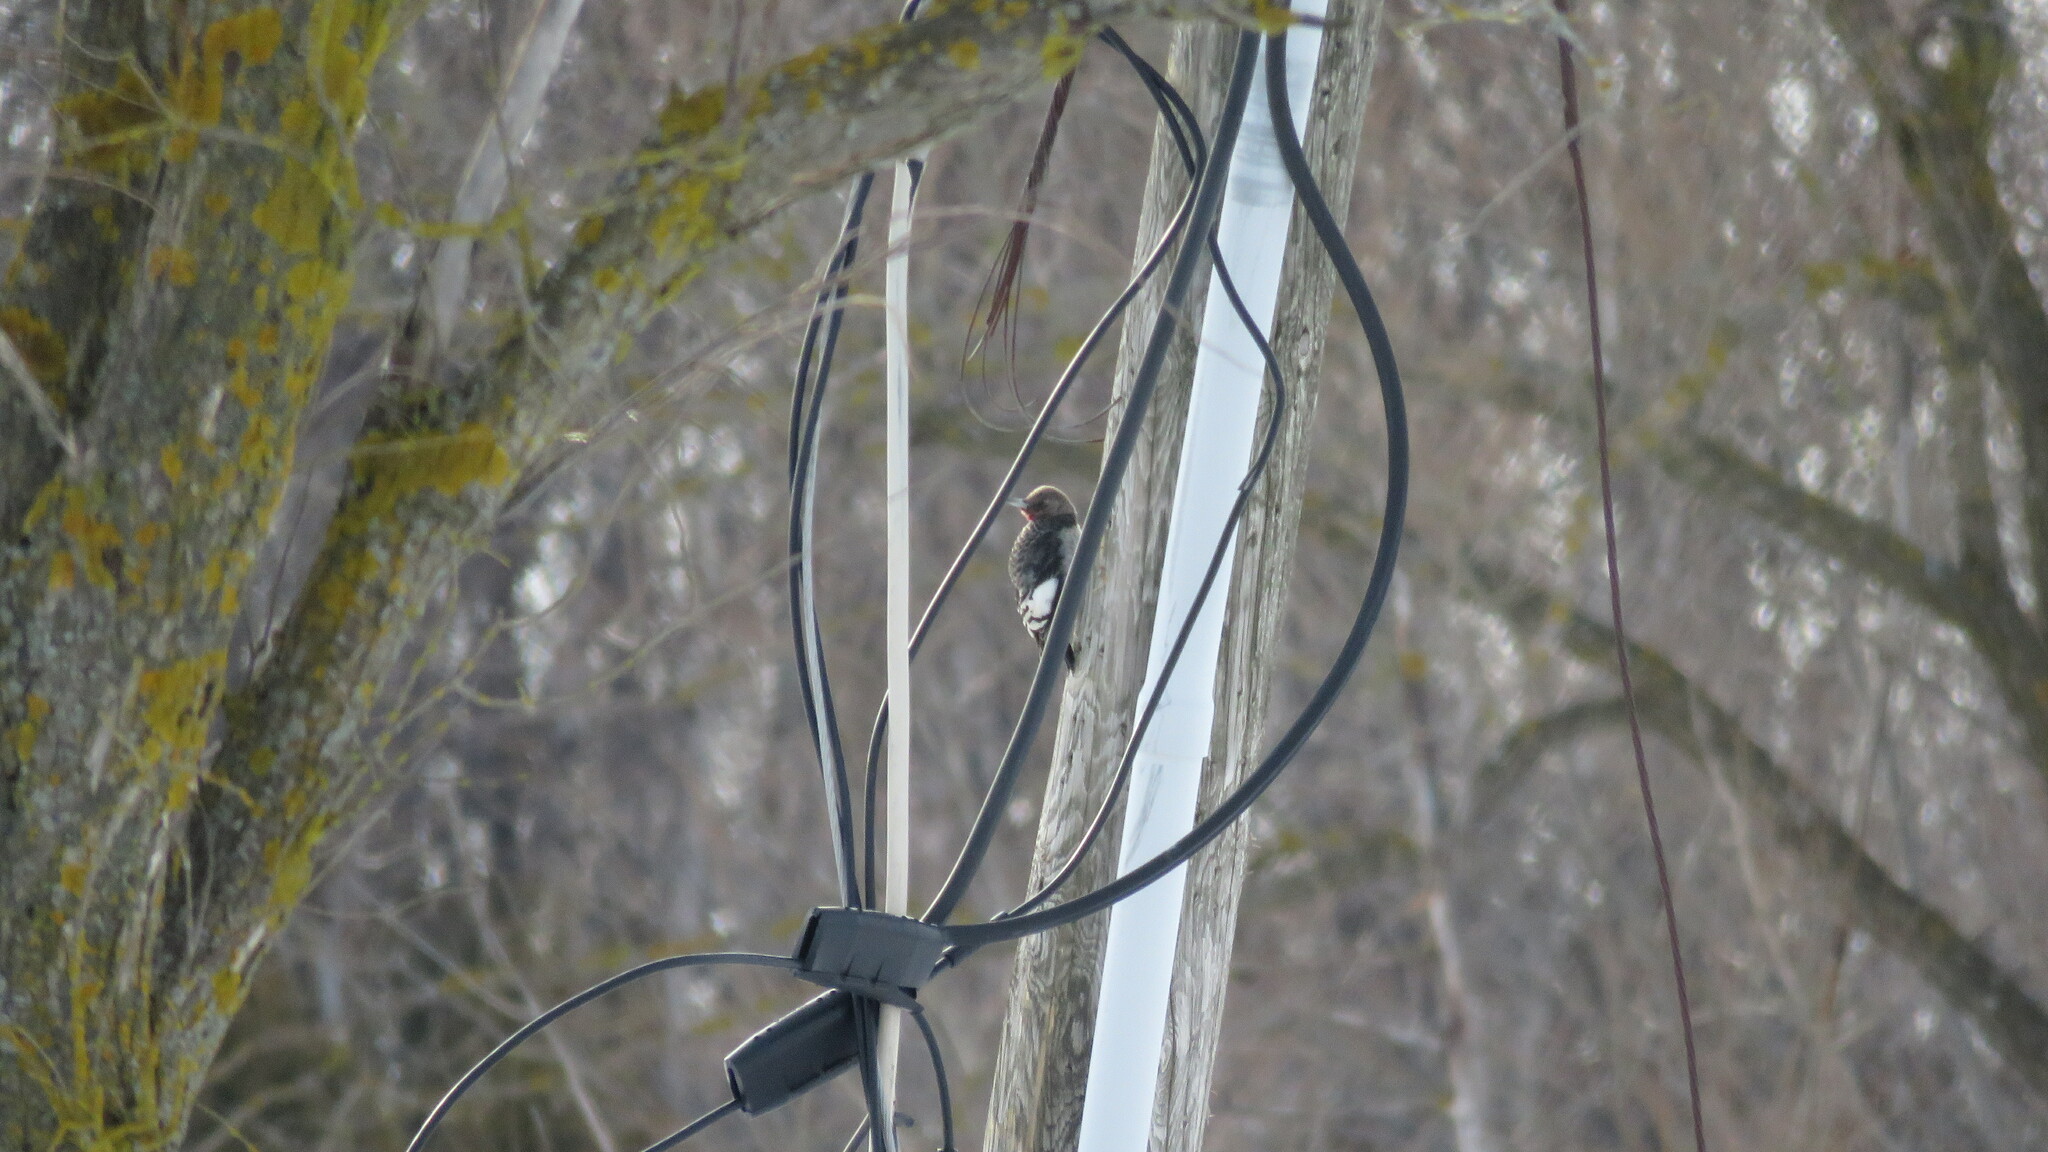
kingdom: Animalia
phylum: Chordata
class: Aves
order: Piciformes
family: Picidae
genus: Melanerpes
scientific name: Melanerpes erythrocephalus
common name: Red-headed woodpecker
